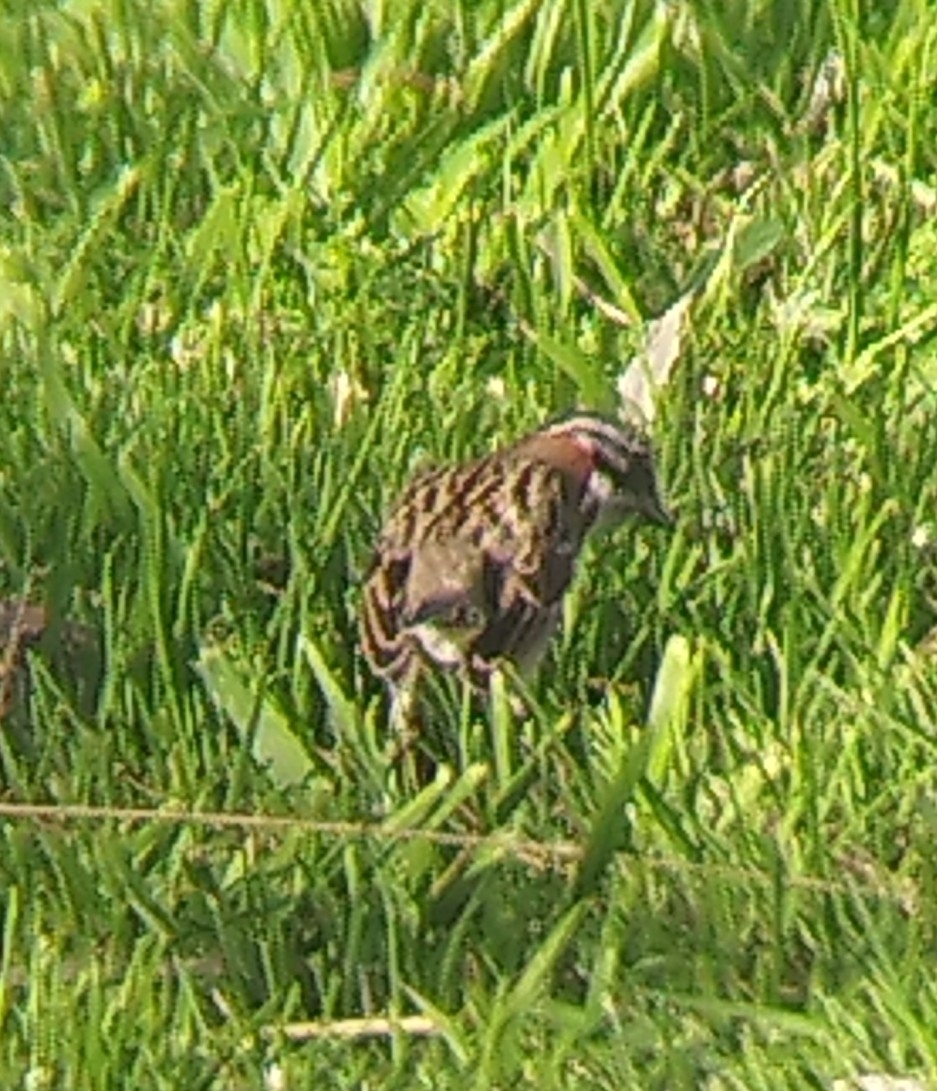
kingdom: Animalia
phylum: Chordata
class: Aves
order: Passeriformes
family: Passerellidae
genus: Zonotrichia
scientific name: Zonotrichia capensis
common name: Rufous-collared sparrow
